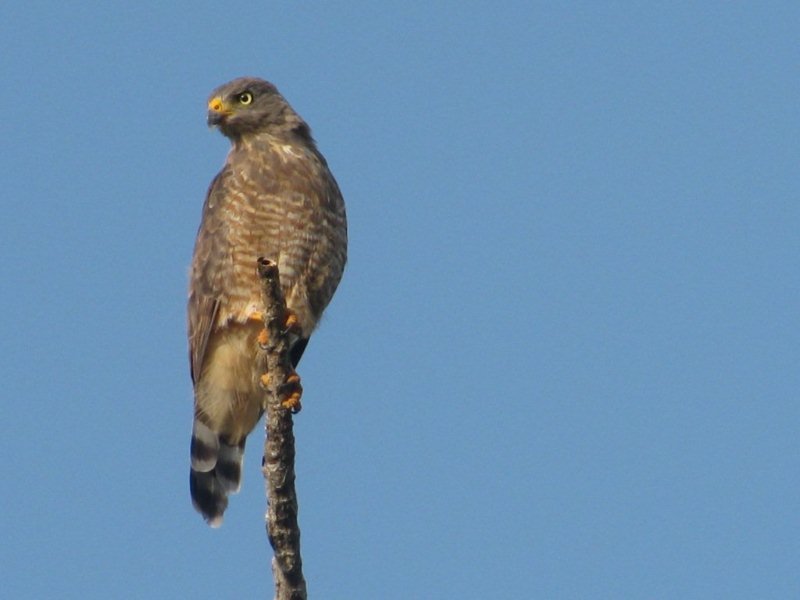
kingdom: Animalia
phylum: Chordata
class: Aves
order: Accipitriformes
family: Accipitridae
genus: Rupornis
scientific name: Rupornis magnirostris
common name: Roadside hawk
